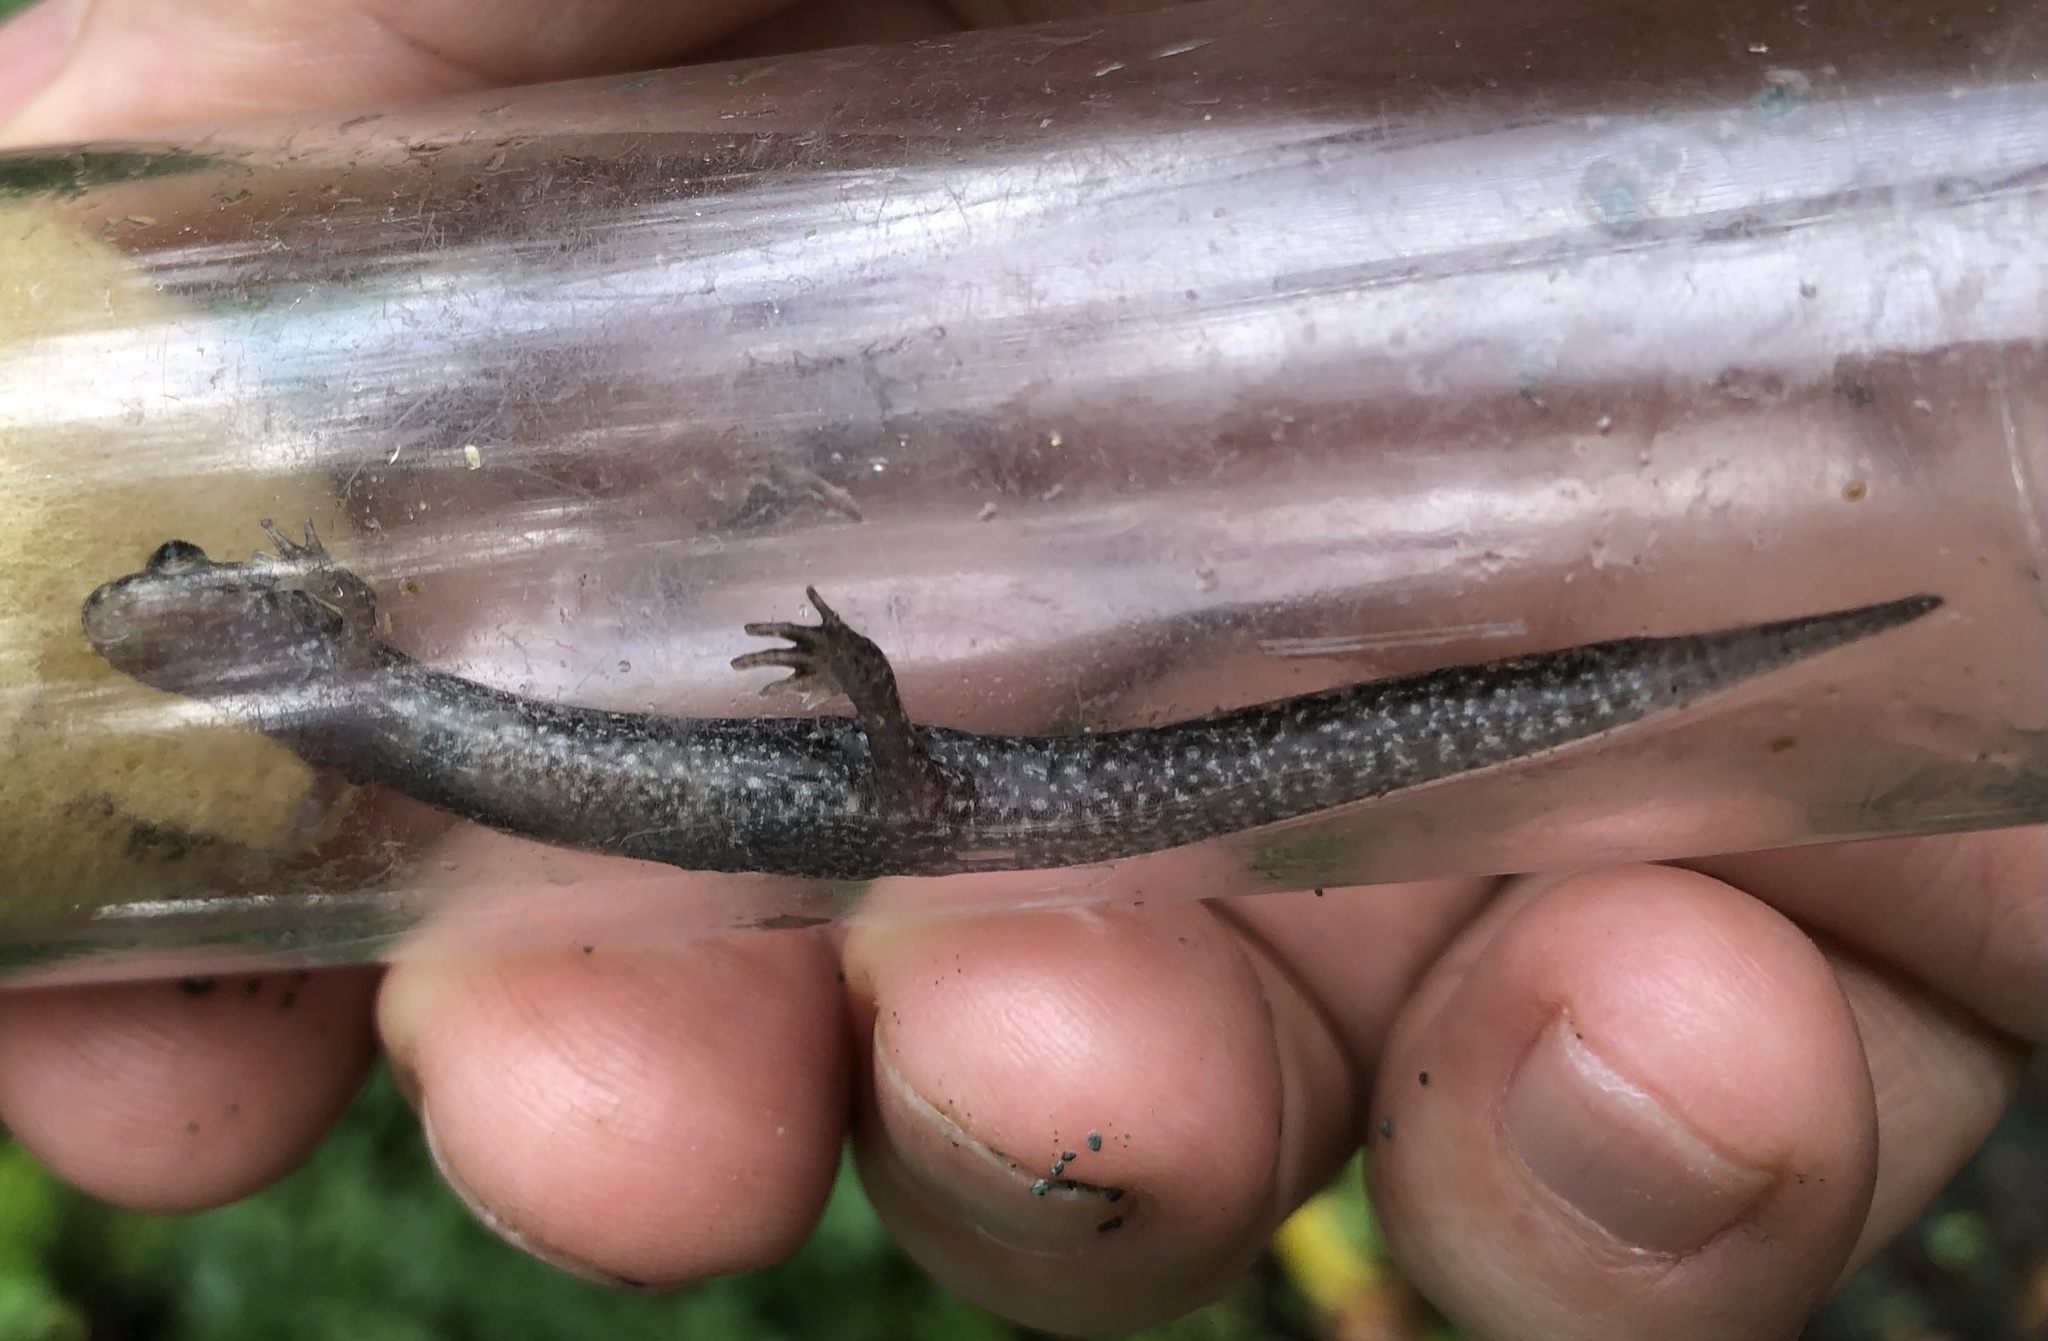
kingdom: Animalia
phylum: Chordata
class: Amphibia
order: Caudata
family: Plethodontidae
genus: Desmognathus
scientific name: Desmognathus
